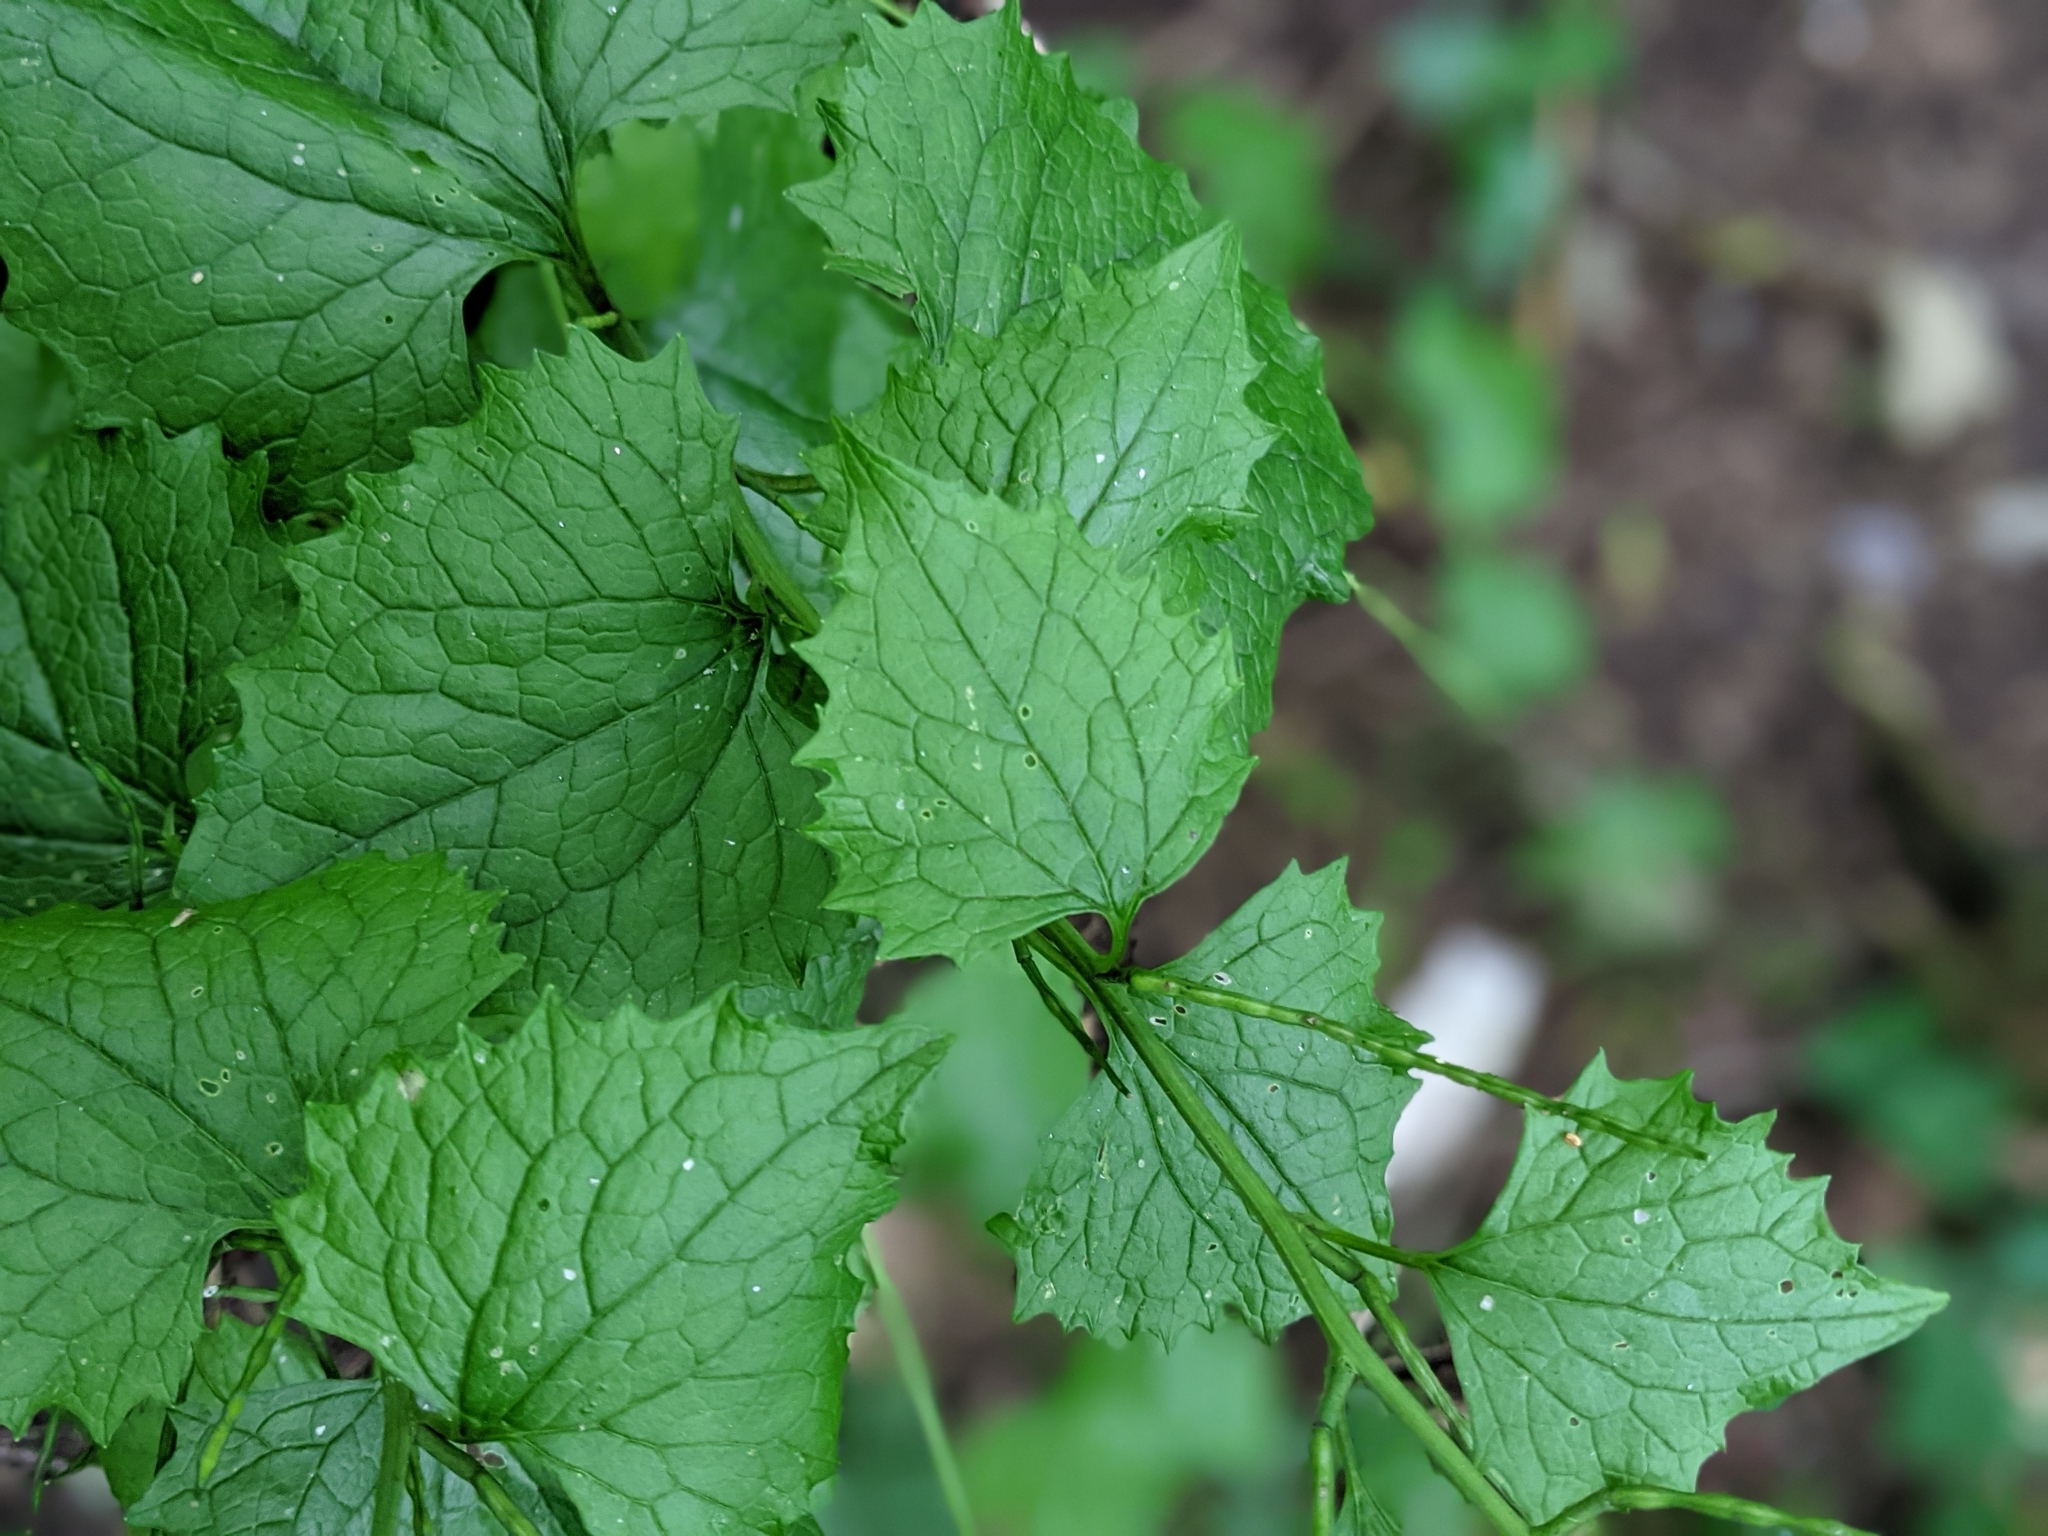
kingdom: Plantae
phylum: Tracheophyta
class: Magnoliopsida
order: Brassicales
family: Brassicaceae
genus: Alliaria
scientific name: Alliaria petiolata
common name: Garlic mustard
